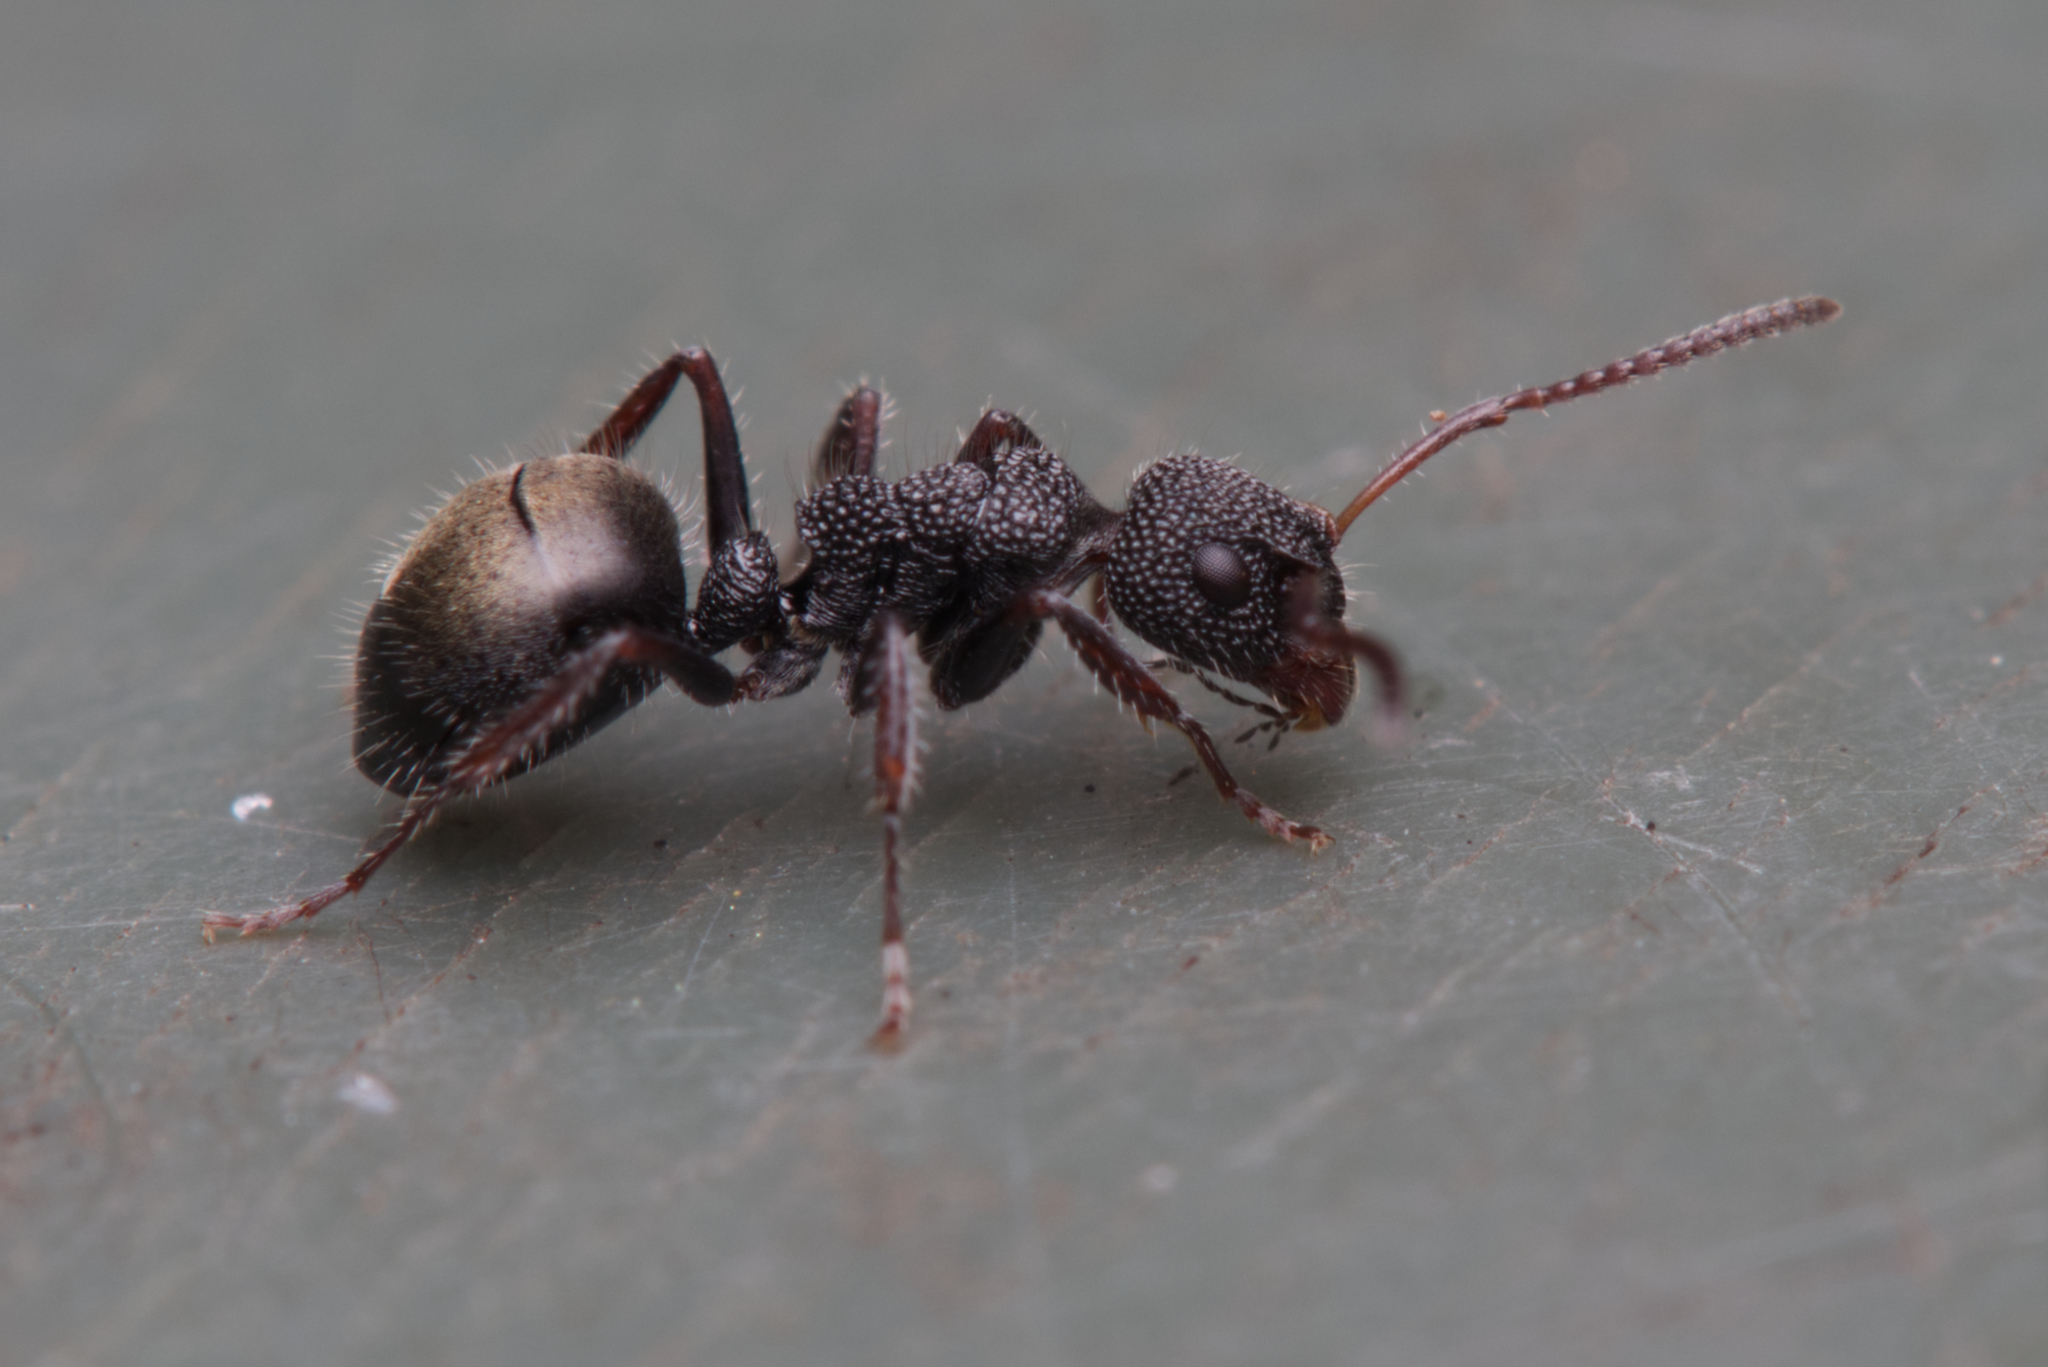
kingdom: Animalia
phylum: Arthropoda
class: Insecta
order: Hymenoptera
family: Formicidae
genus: Dolichoderus
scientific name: Dolichoderus scrobiculatus
